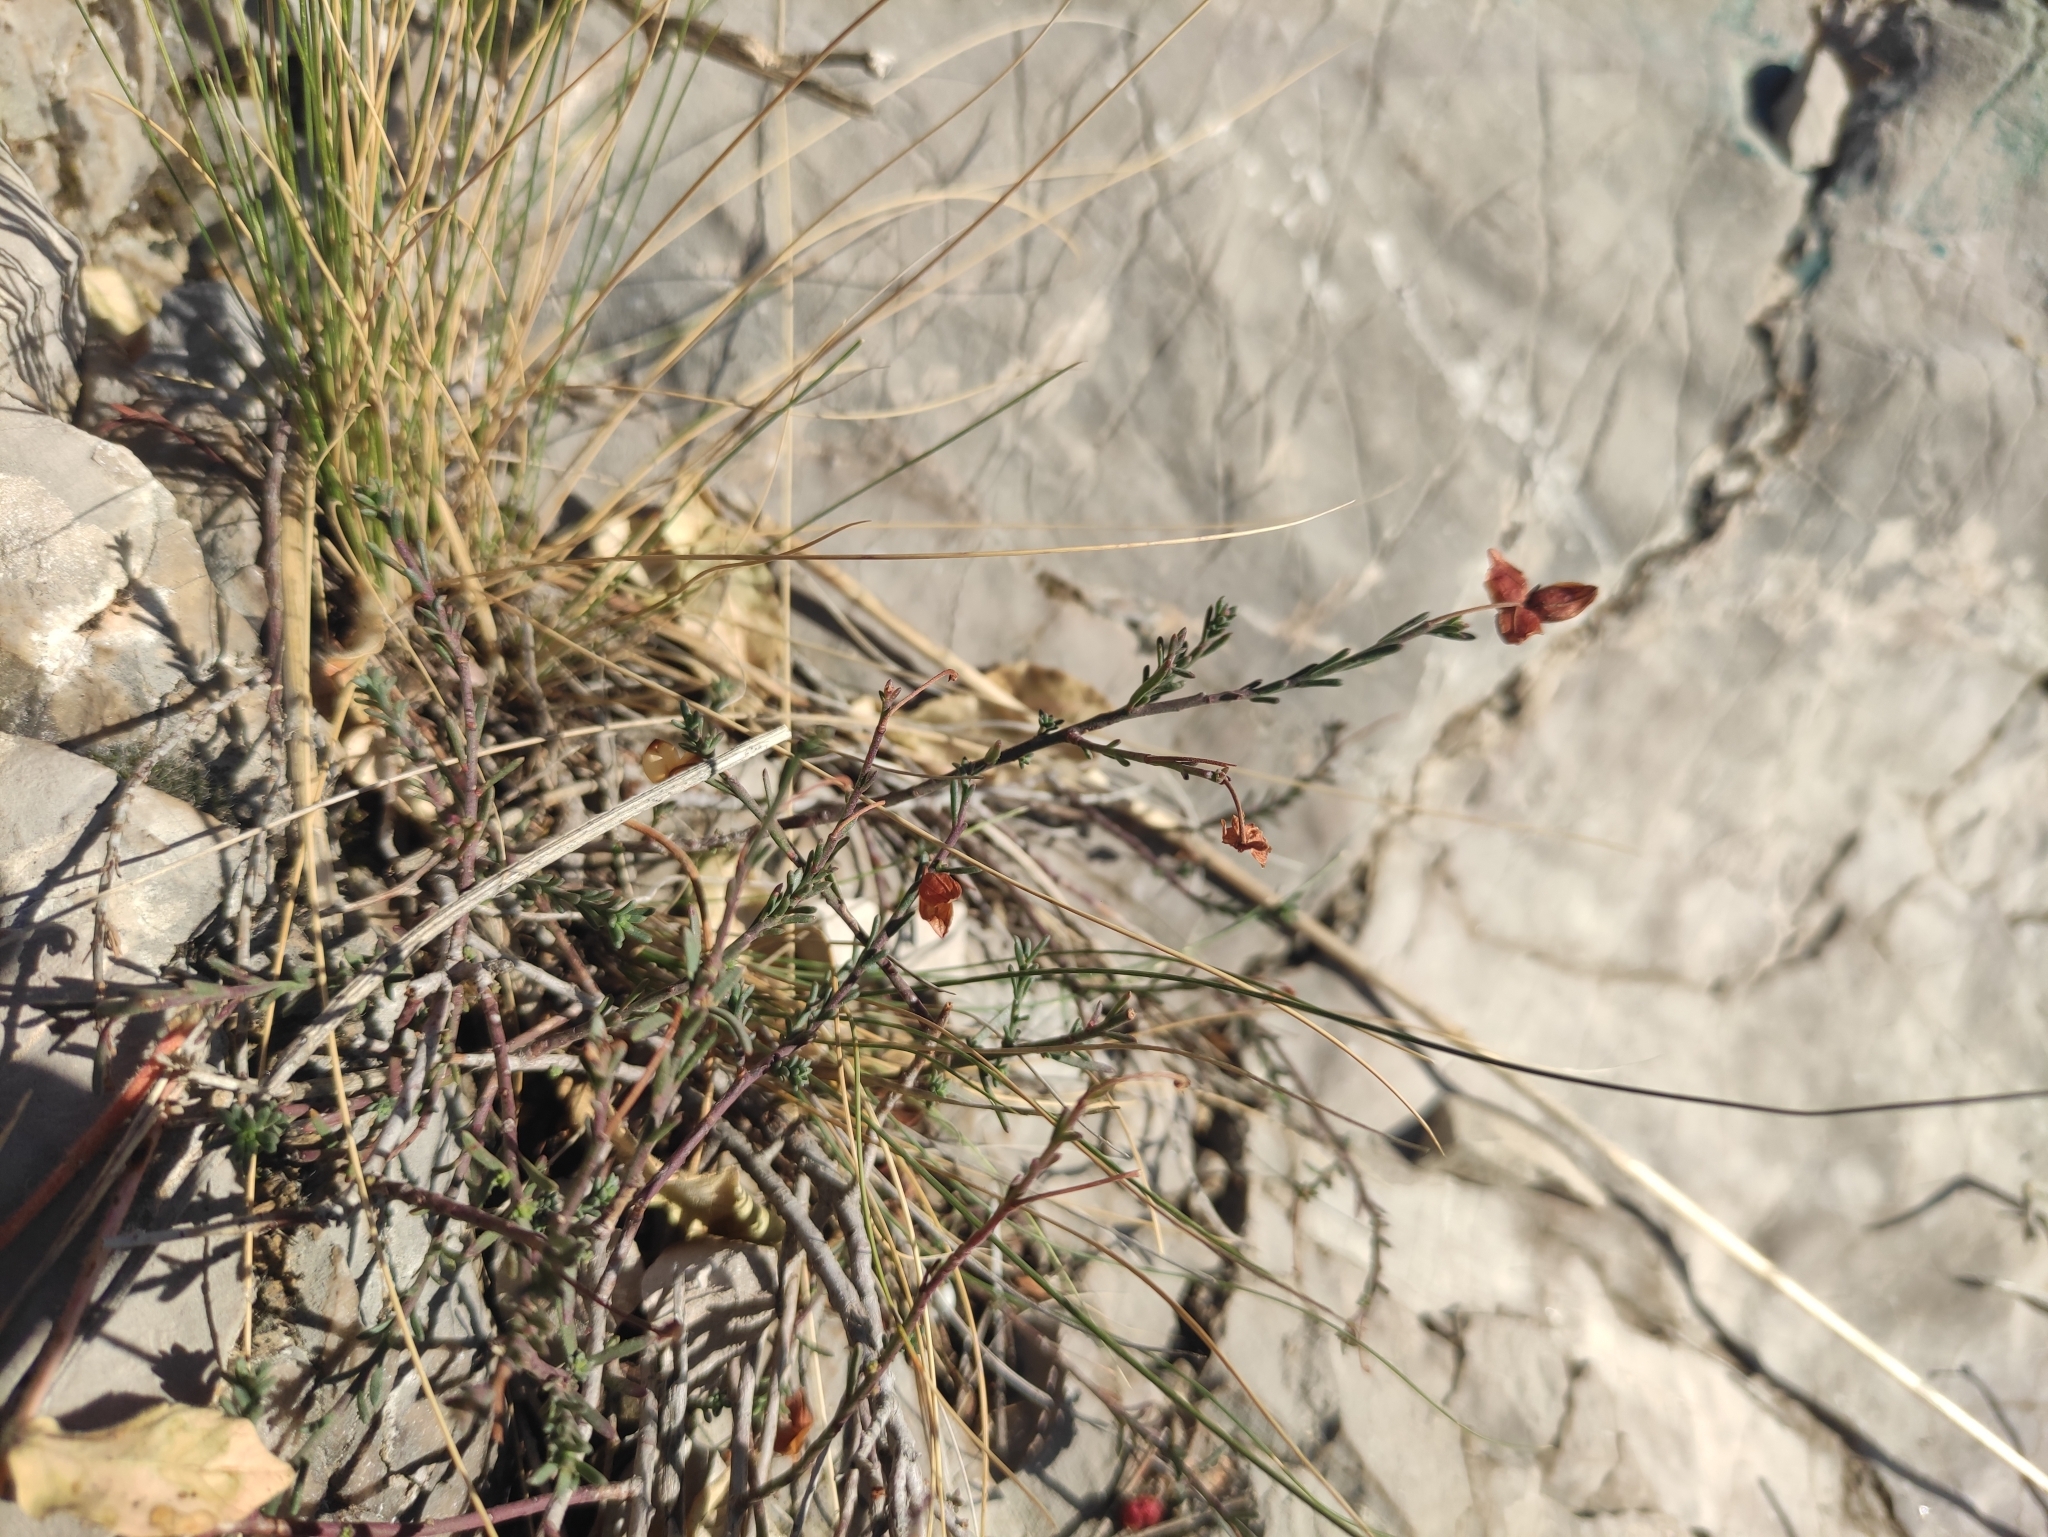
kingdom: Plantae
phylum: Tracheophyta
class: Magnoliopsida
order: Malvales
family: Cistaceae
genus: Fumana
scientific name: Fumana ericifolia
